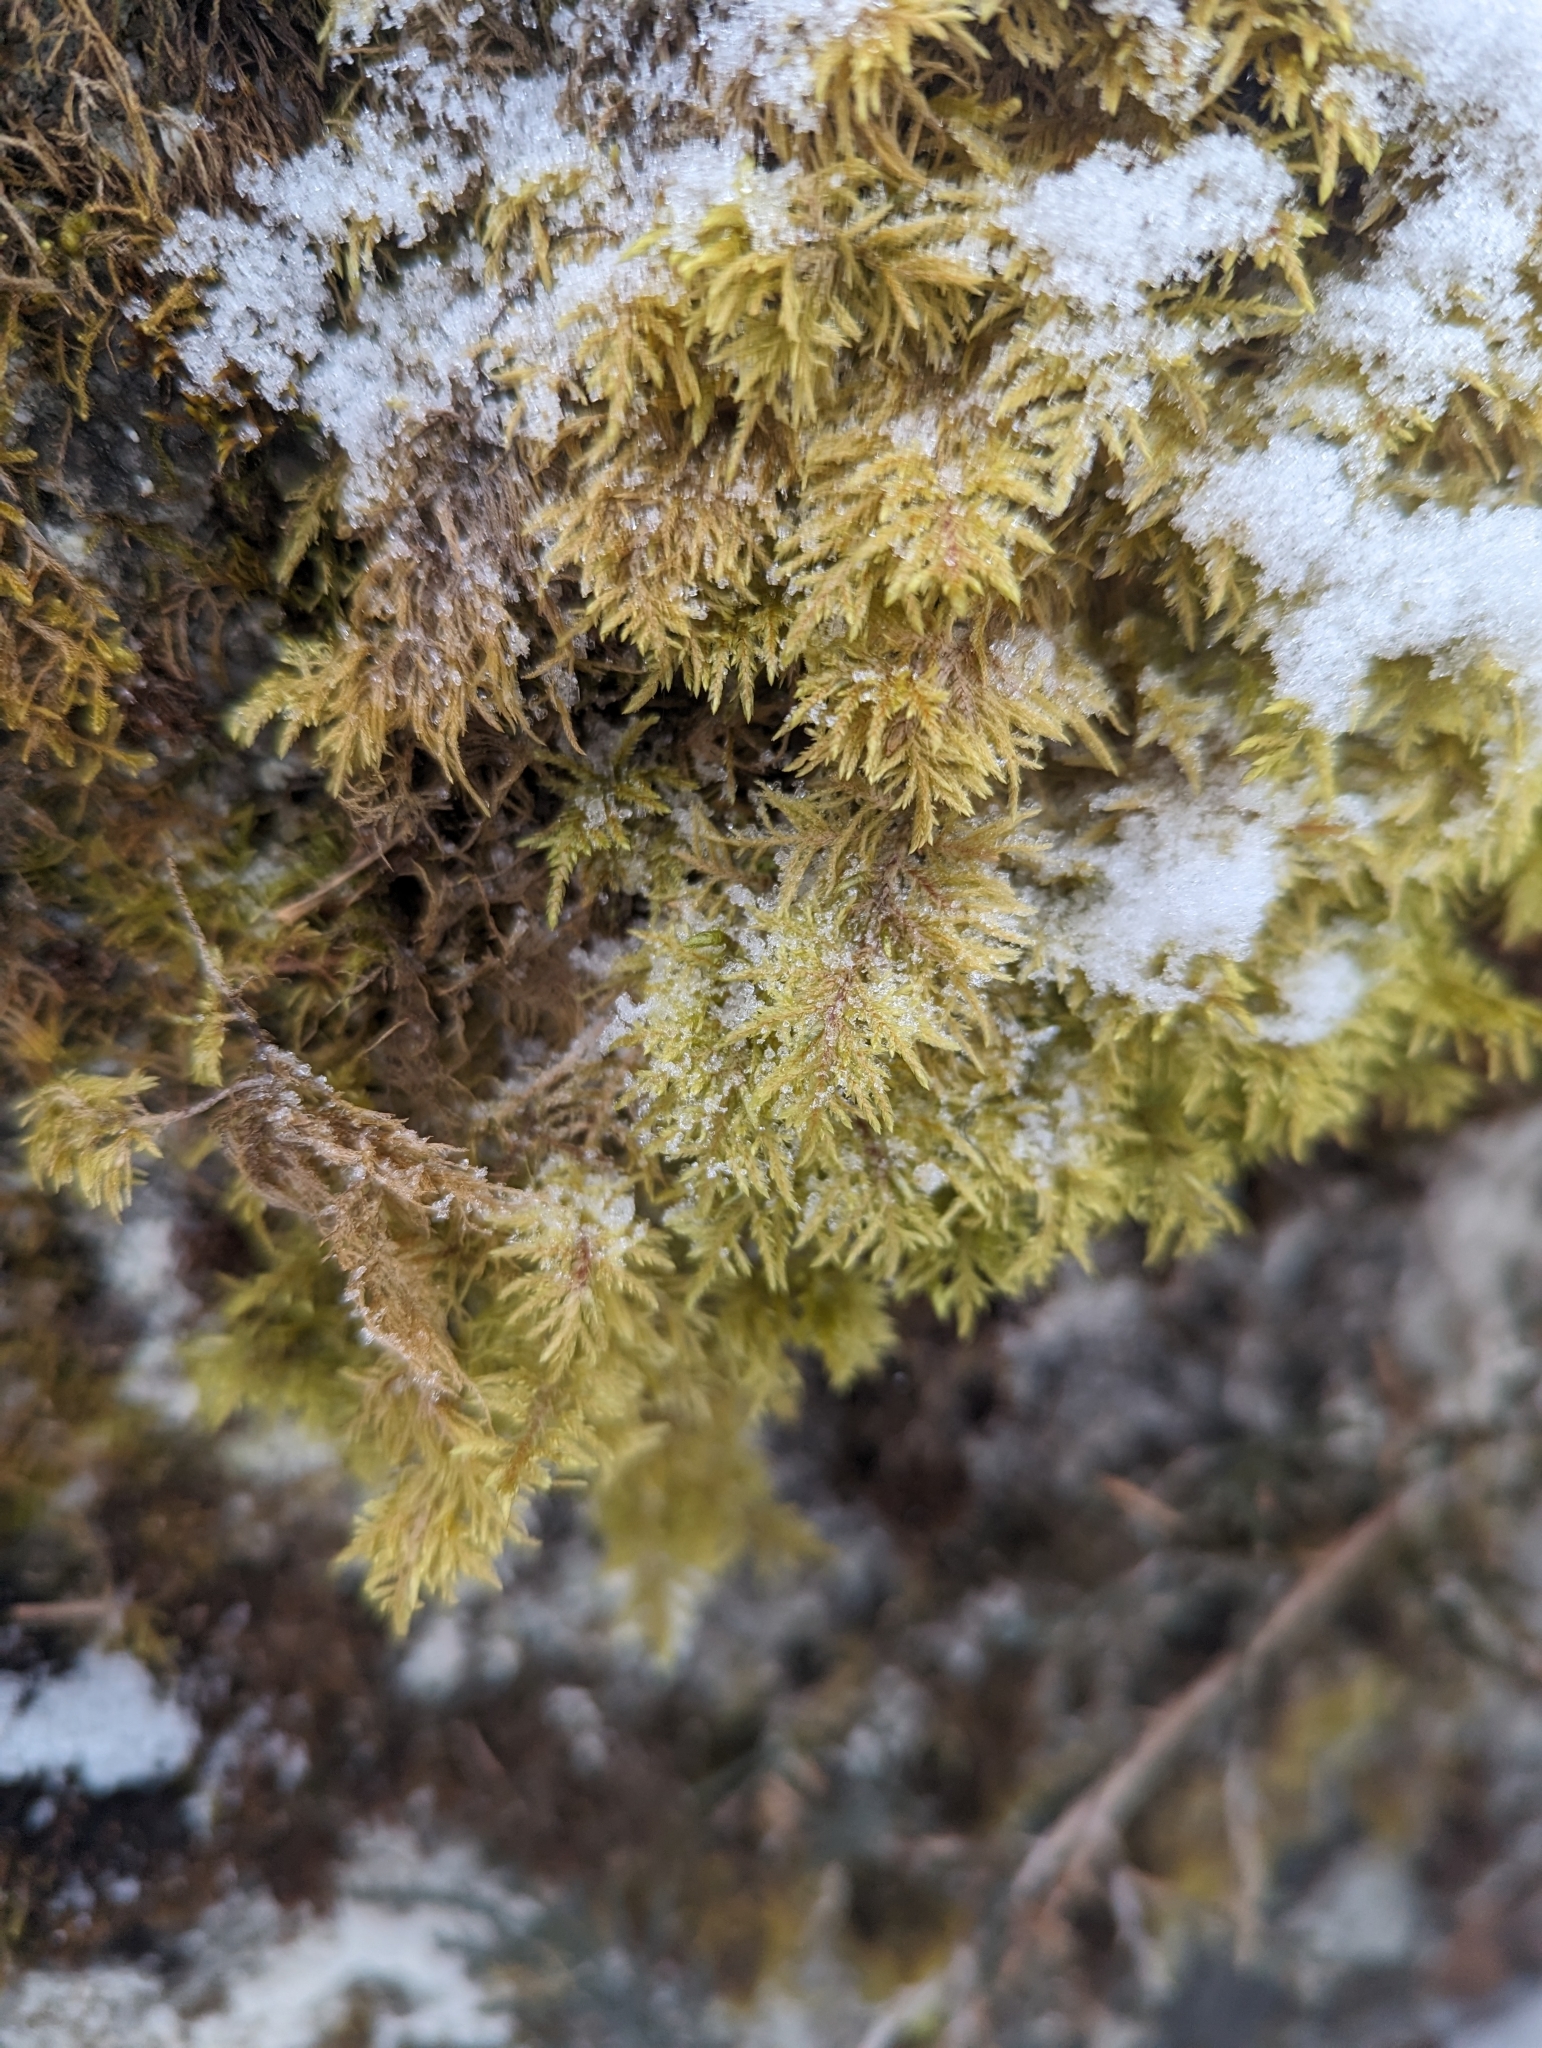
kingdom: Plantae
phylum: Bryophyta
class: Bryopsida
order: Hypnales
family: Hylocomiaceae
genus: Hylocomium
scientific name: Hylocomium splendens
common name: Stairstep moss
